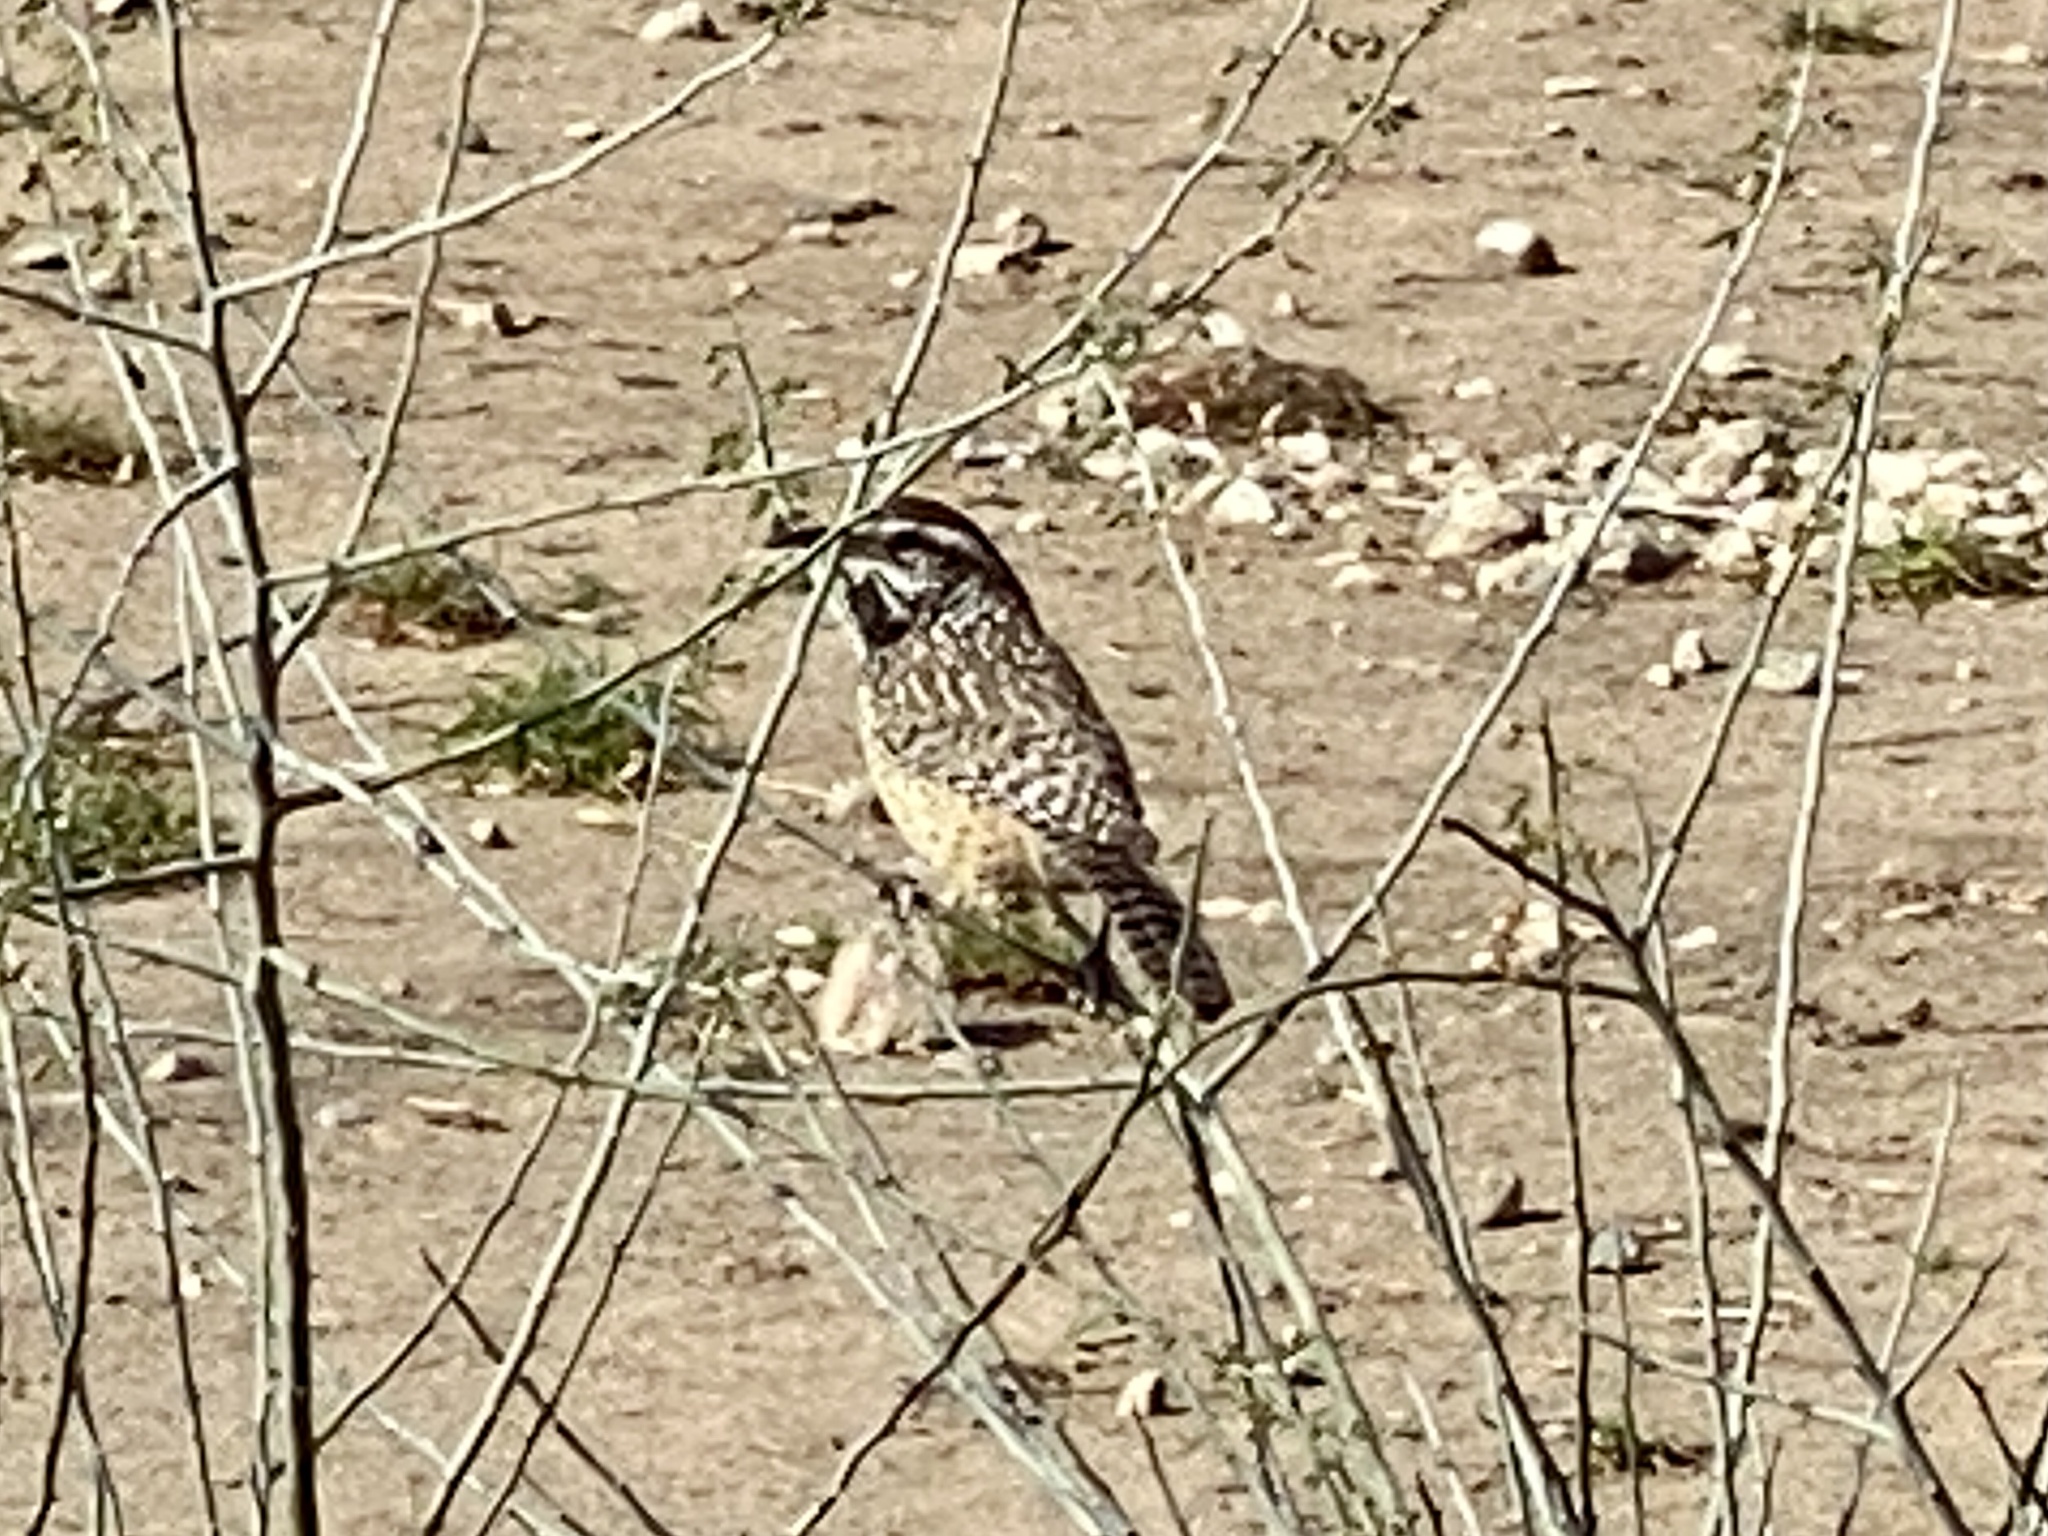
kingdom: Animalia
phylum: Chordata
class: Aves
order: Passeriformes
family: Troglodytidae
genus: Campylorhynchus
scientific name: Campylorhynchus brunneicapillus
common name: Cactus wren
